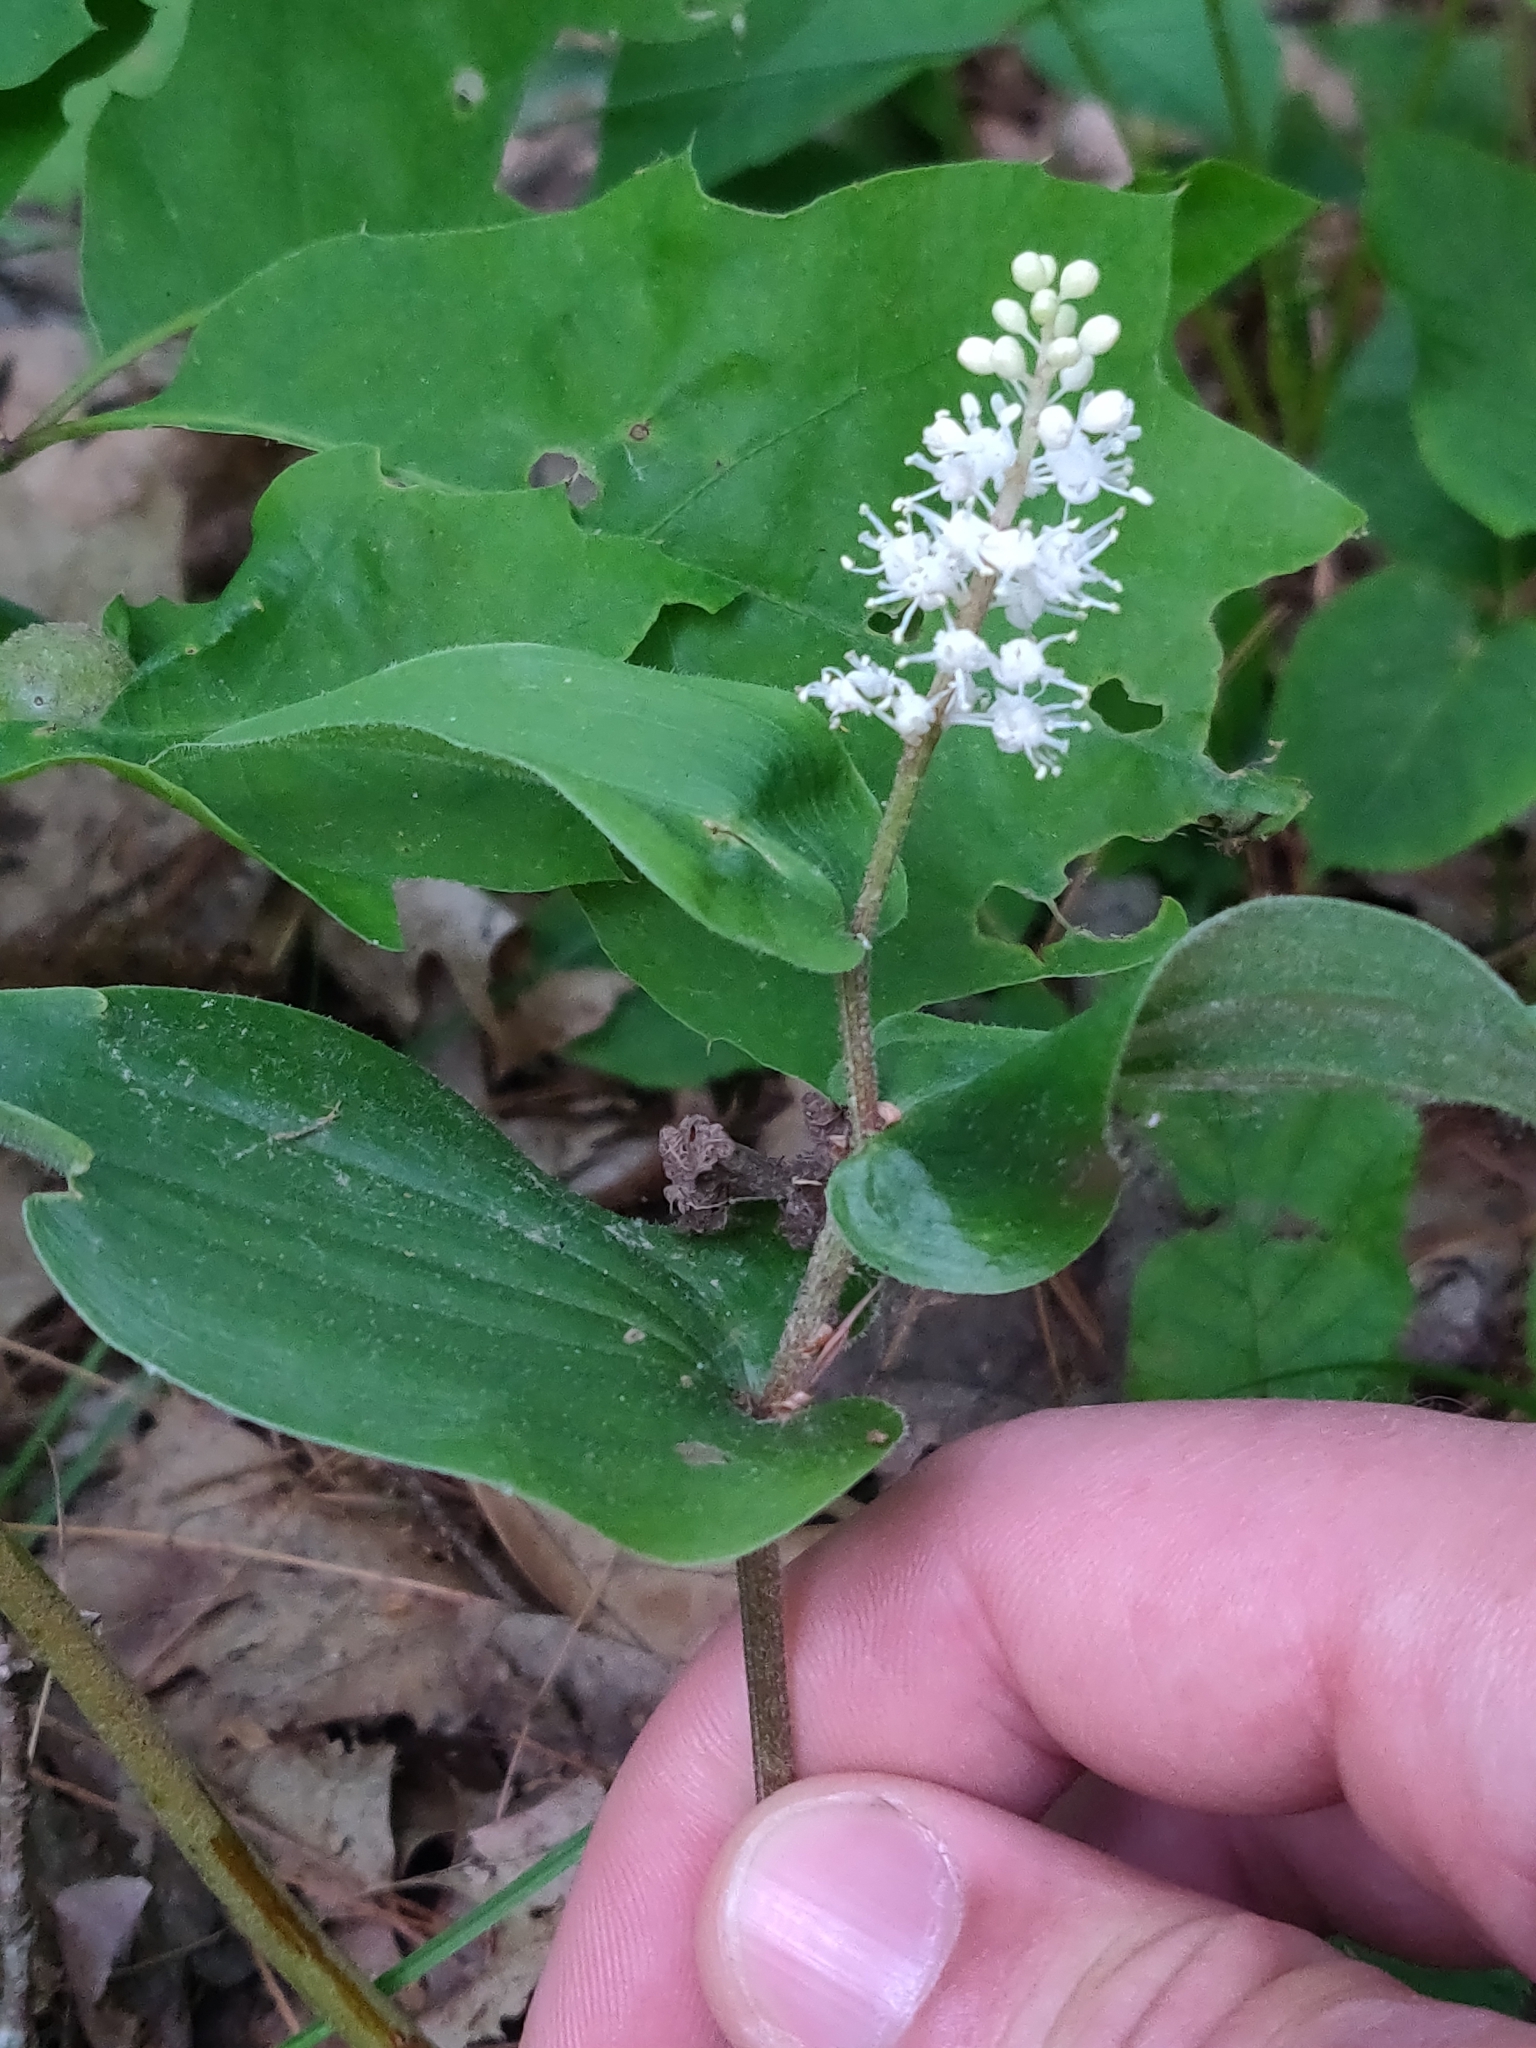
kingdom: Plantae
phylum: Tracheophyta
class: Liliopsida
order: Asparagales
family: Asparagaceae
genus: Maianthemum
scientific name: Maianthemum canadense
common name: False lily-of-the-valley
